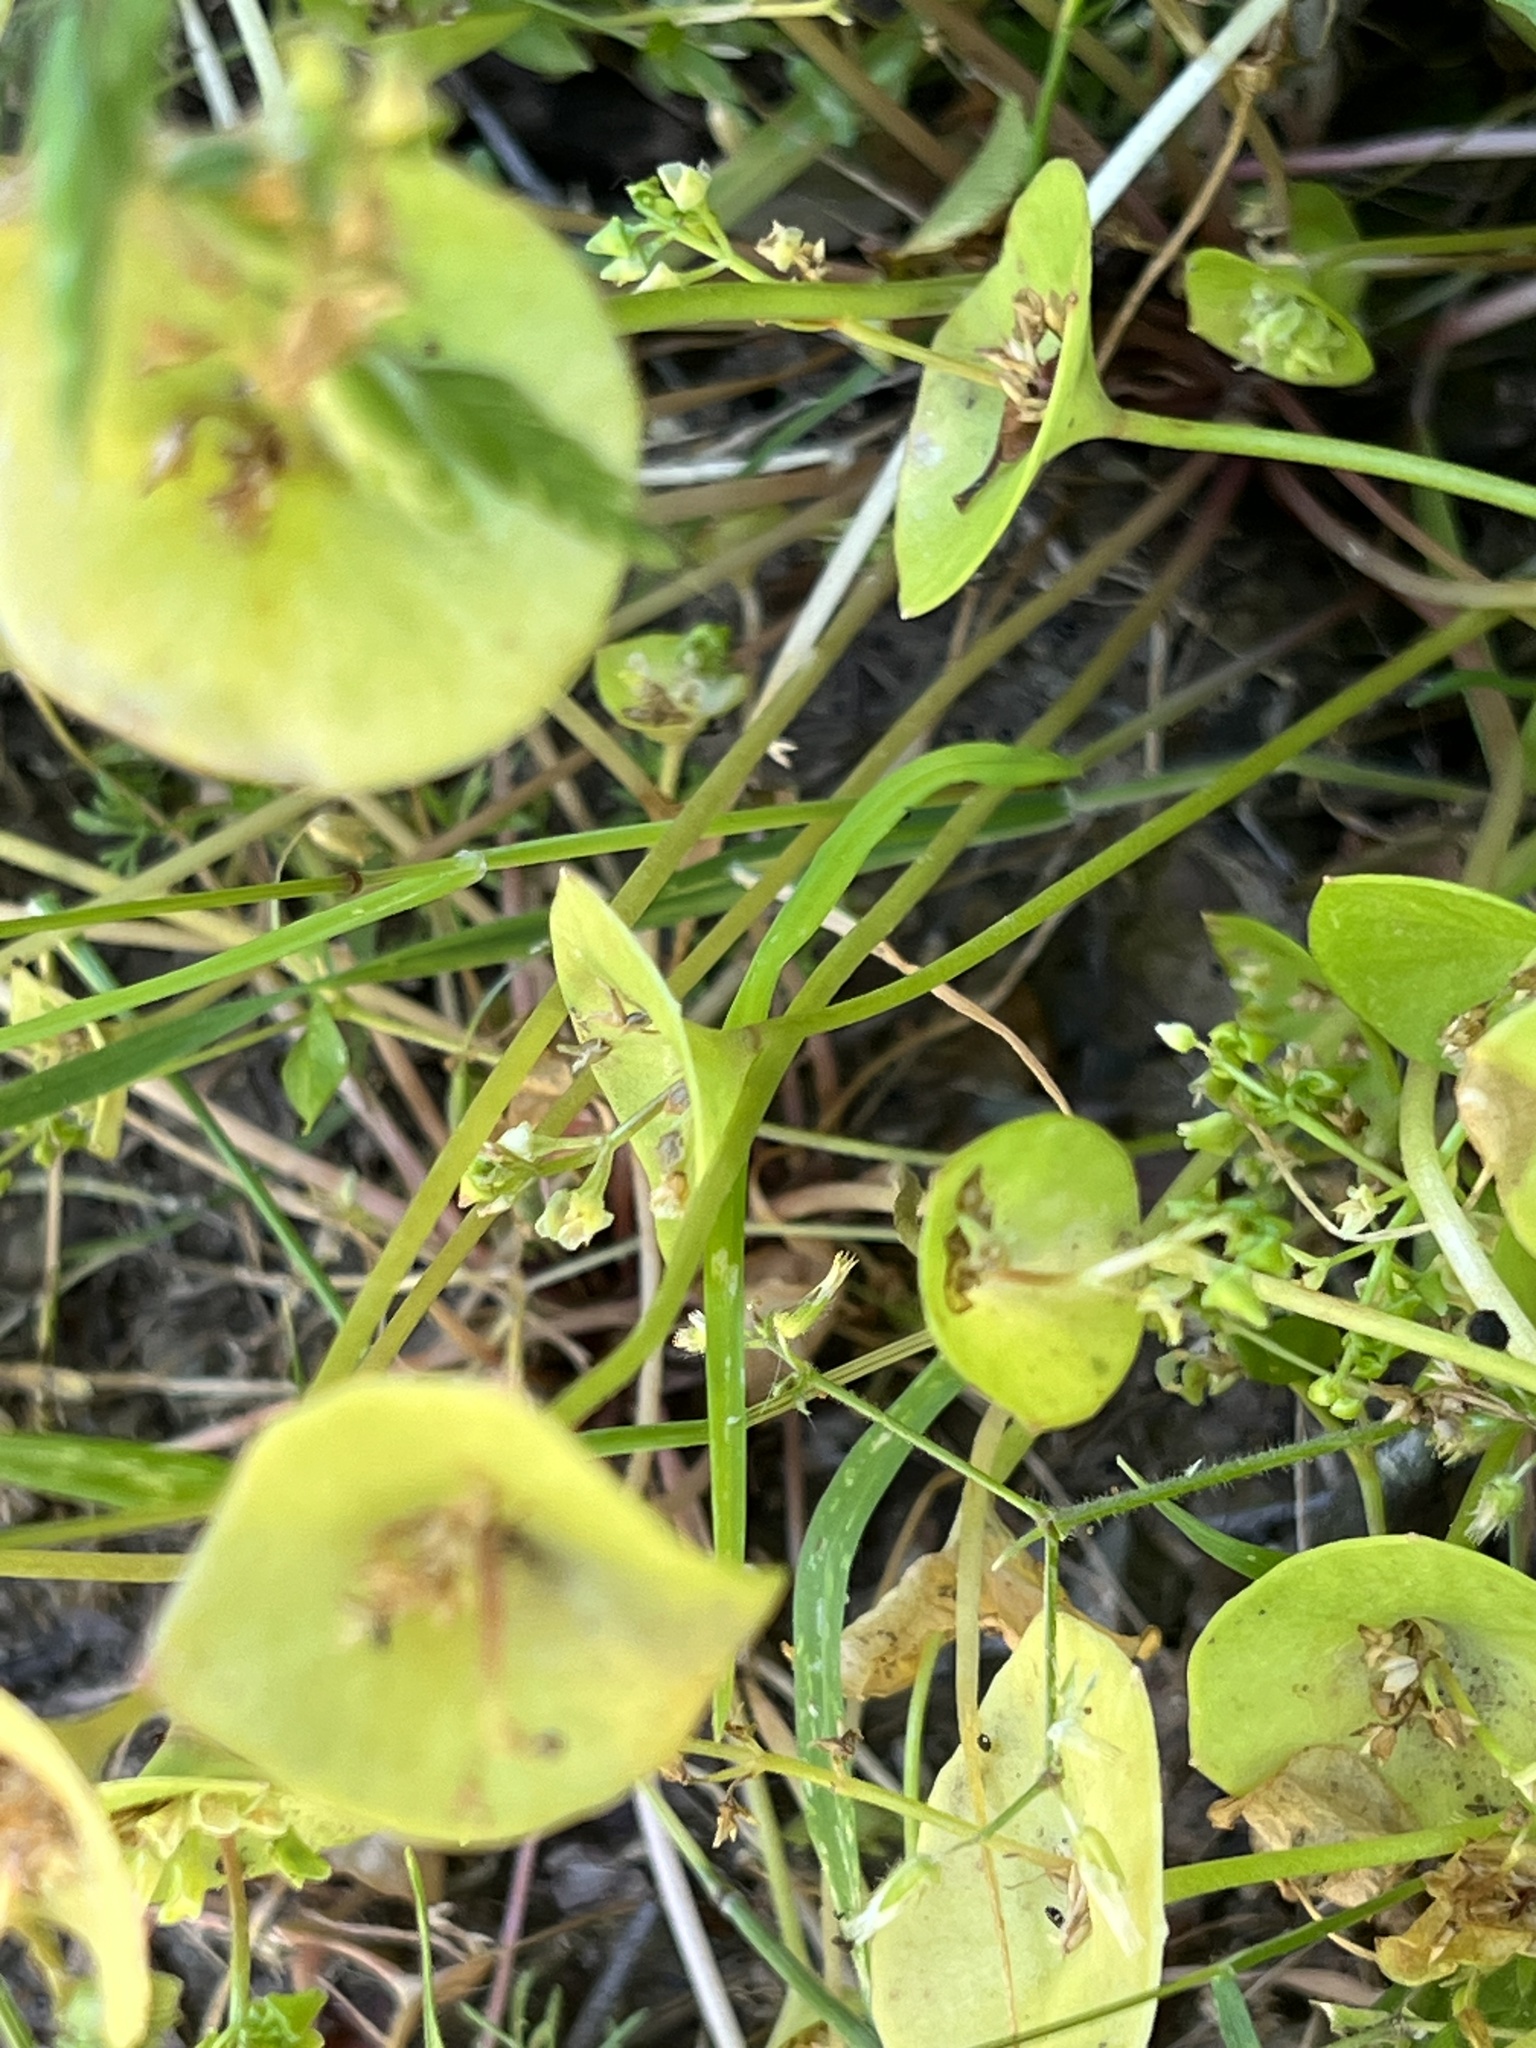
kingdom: Plantae
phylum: Tracheophyta
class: Magnoliopsida
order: Caryophyllales
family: Montiaceae
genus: Claytonia
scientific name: Claytonia perfoliata
